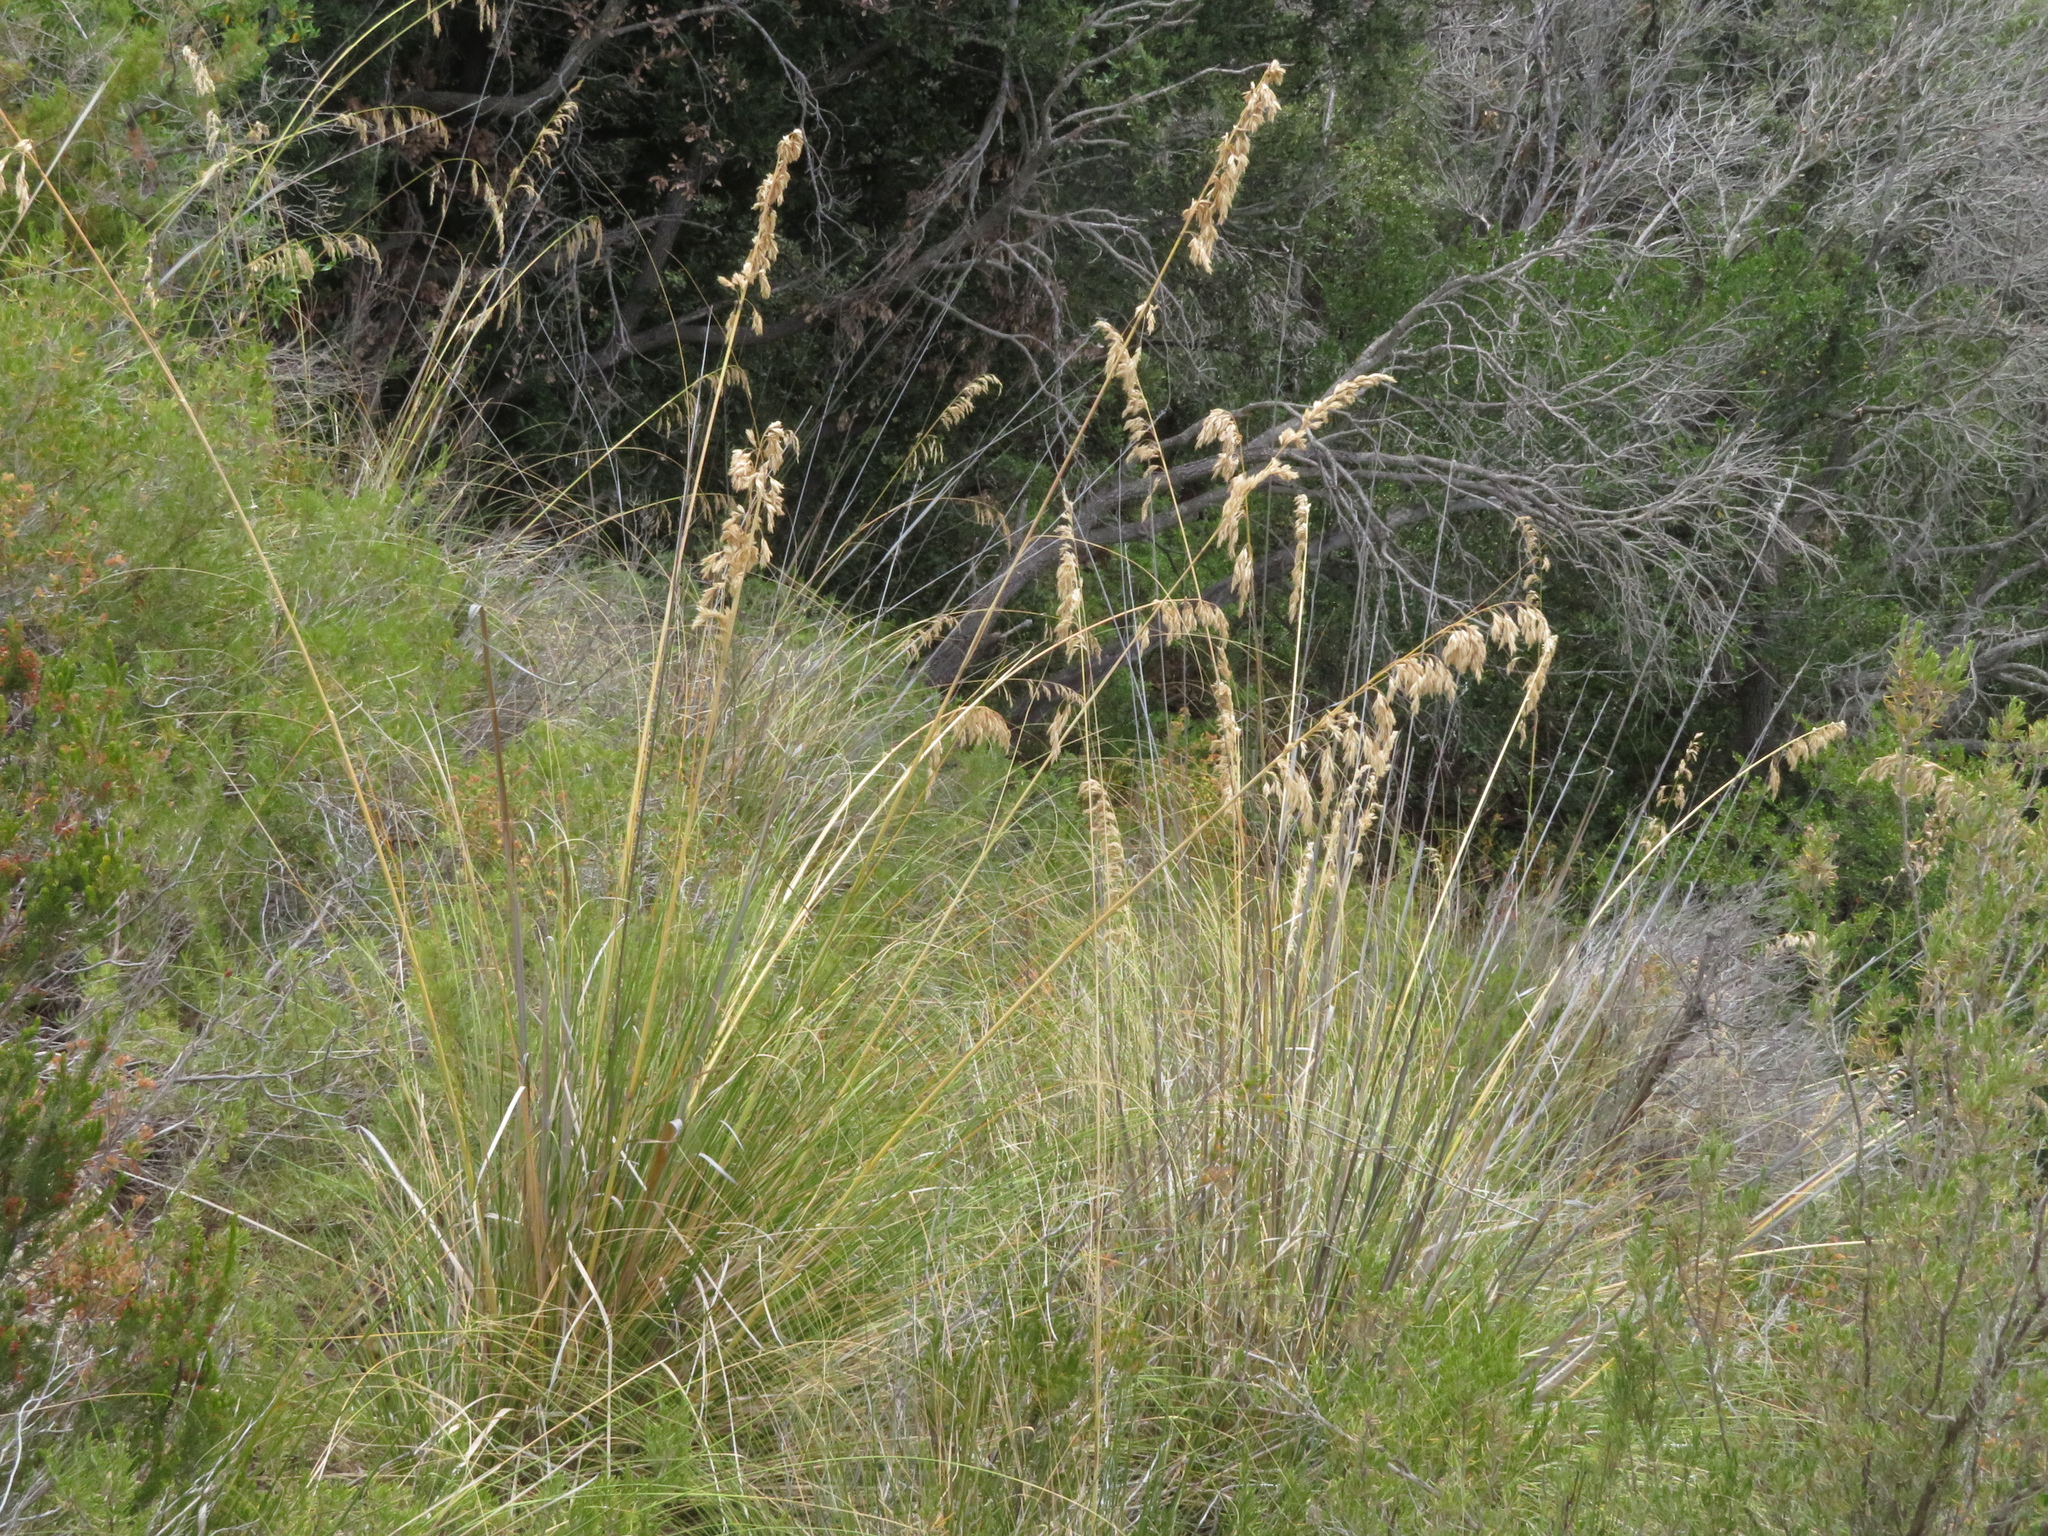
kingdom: Plantae
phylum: Tracheophyta
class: Liliopsida
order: Poales
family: Poaceae
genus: Ampelodesmos
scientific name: Ampelodesmos mauritanicus
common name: Mauritanian grass
